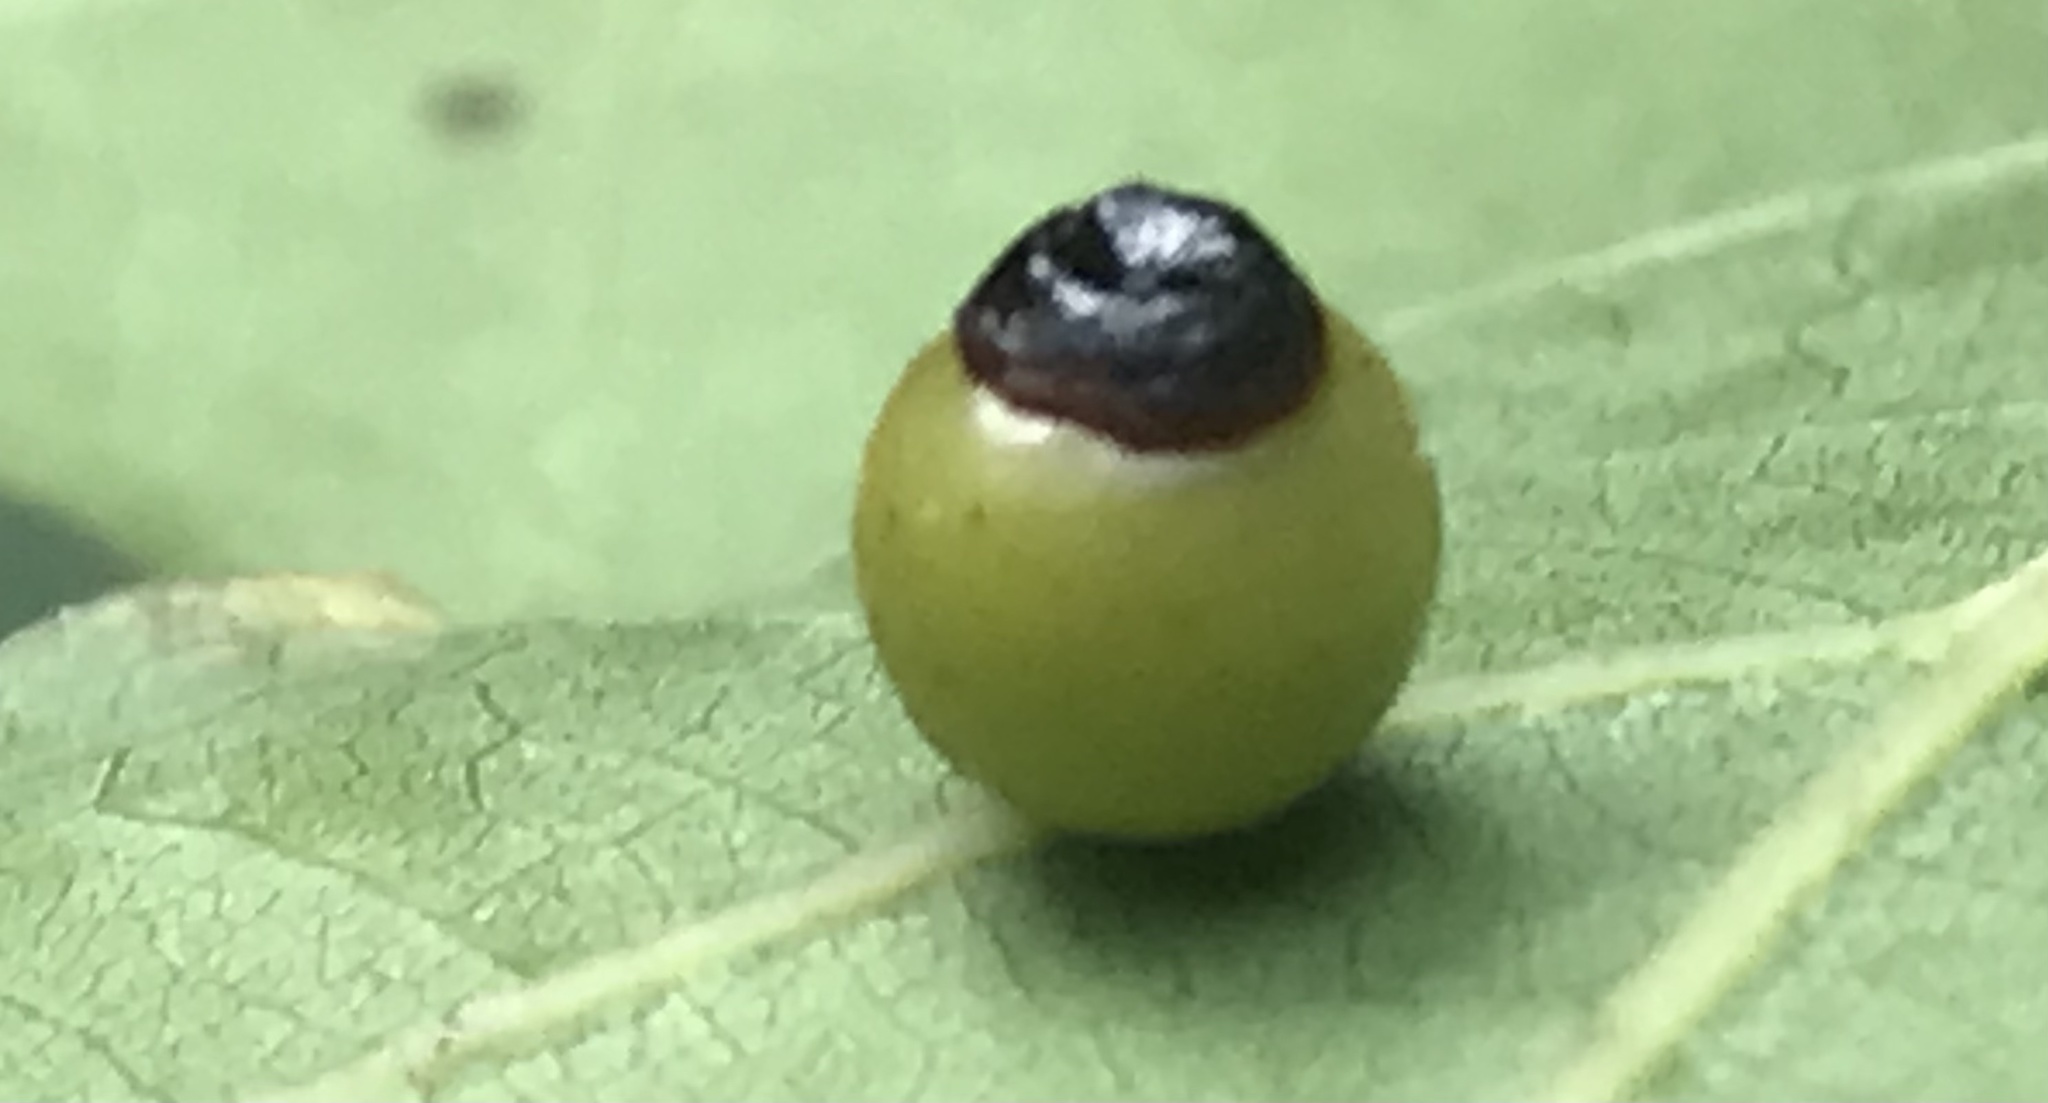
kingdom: Animalia
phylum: Arthropoda
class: Insecta
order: Hymenoptera
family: Cynipidae
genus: Kokkocynips
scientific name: Kokkocynips rileyi
